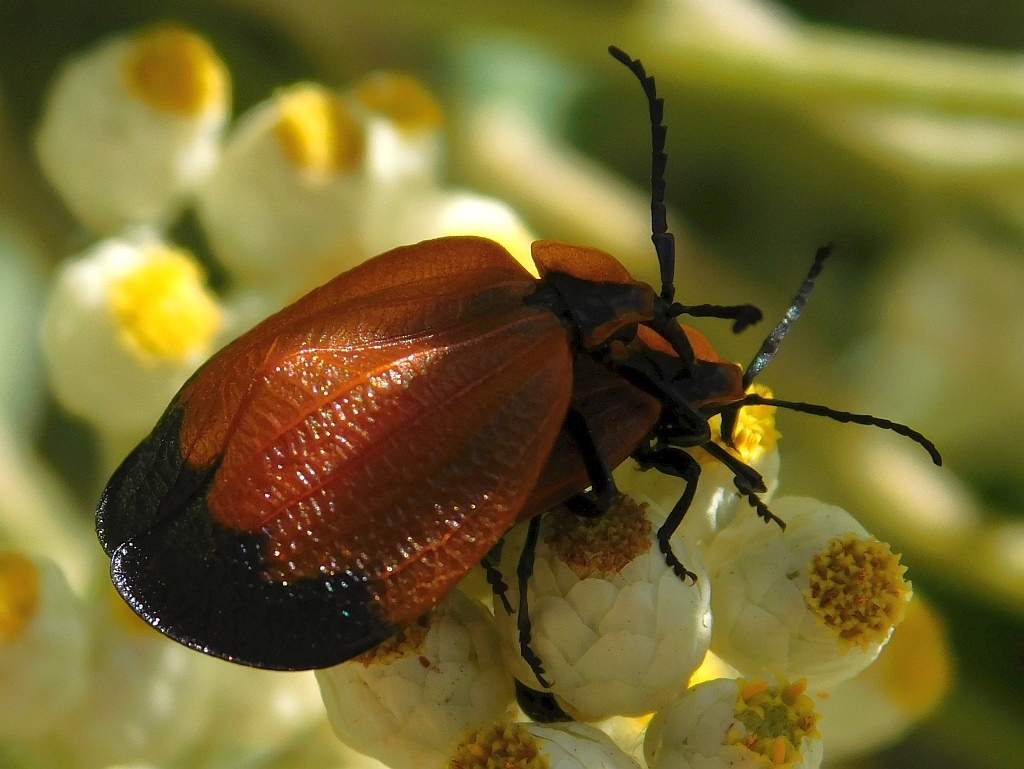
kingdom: Animalia
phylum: Arthropoda
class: Insecta
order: Coleoptera
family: Lycidae
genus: Lycus
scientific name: Lycus
